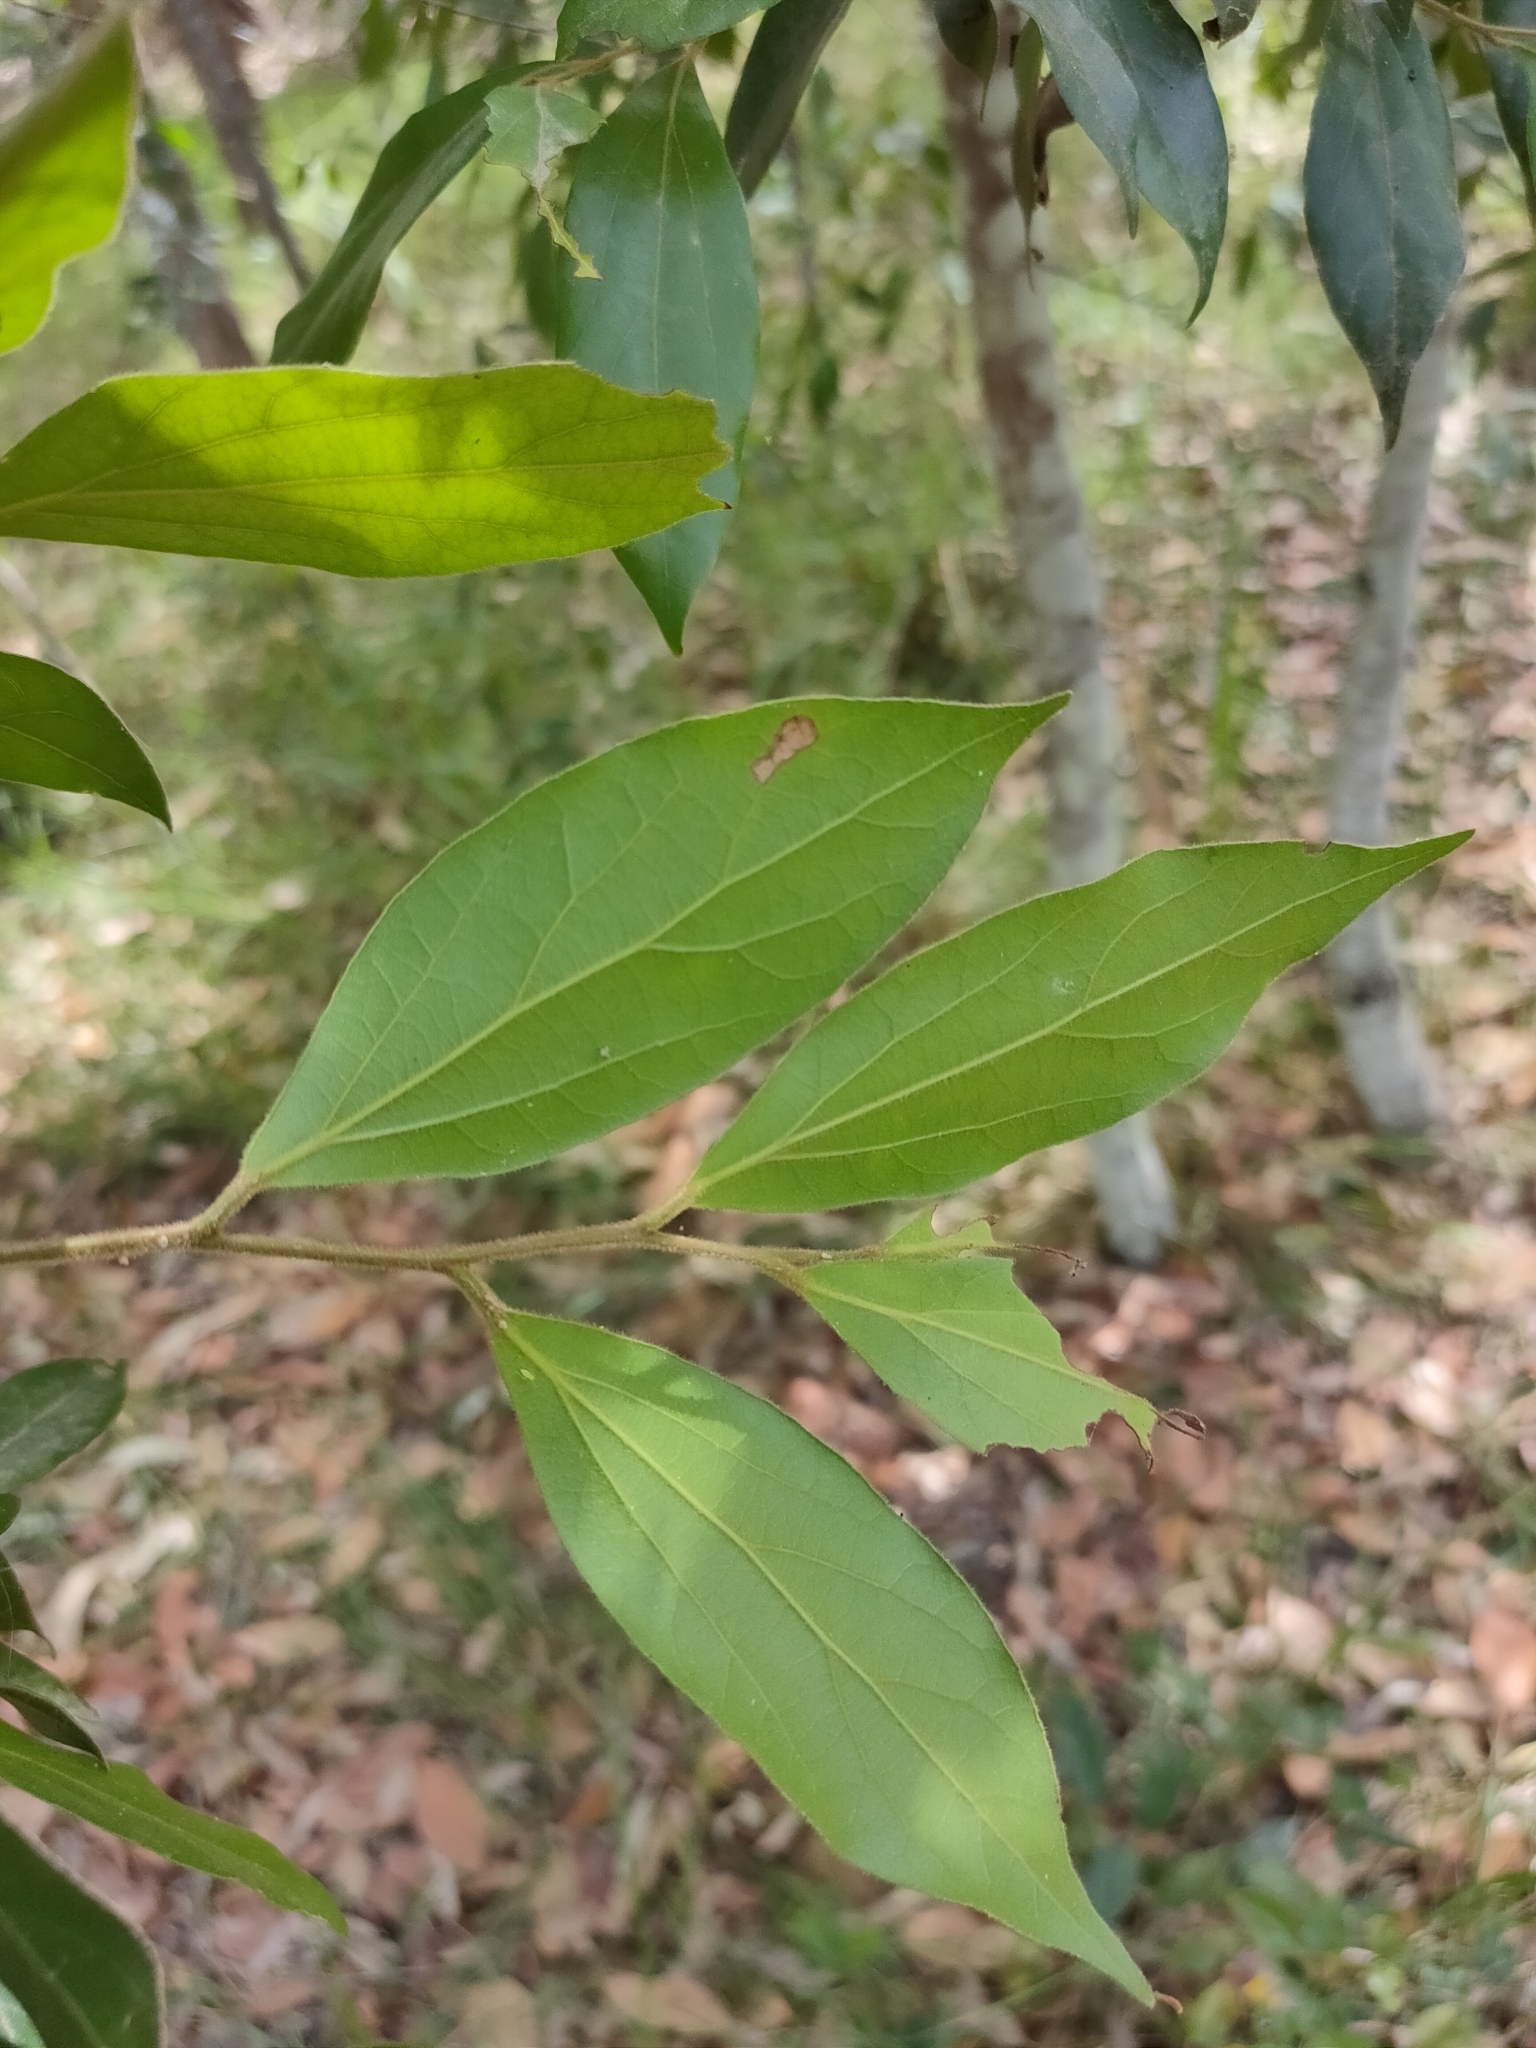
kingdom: Plantae
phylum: Tracheophyta
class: Magnoliopsida
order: Laurales
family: Lauraceae
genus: Cryptocarya
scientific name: Cryptocarya triplinervis
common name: Three-vein cryptocarya
